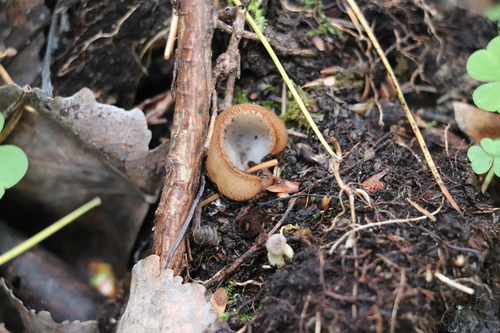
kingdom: Fungi
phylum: Ascomycota
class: Pezizomycetes
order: Pezizales
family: Pyronemataceae
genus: Humaria
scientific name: Humaria hemisphaerica
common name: Glazed cup
